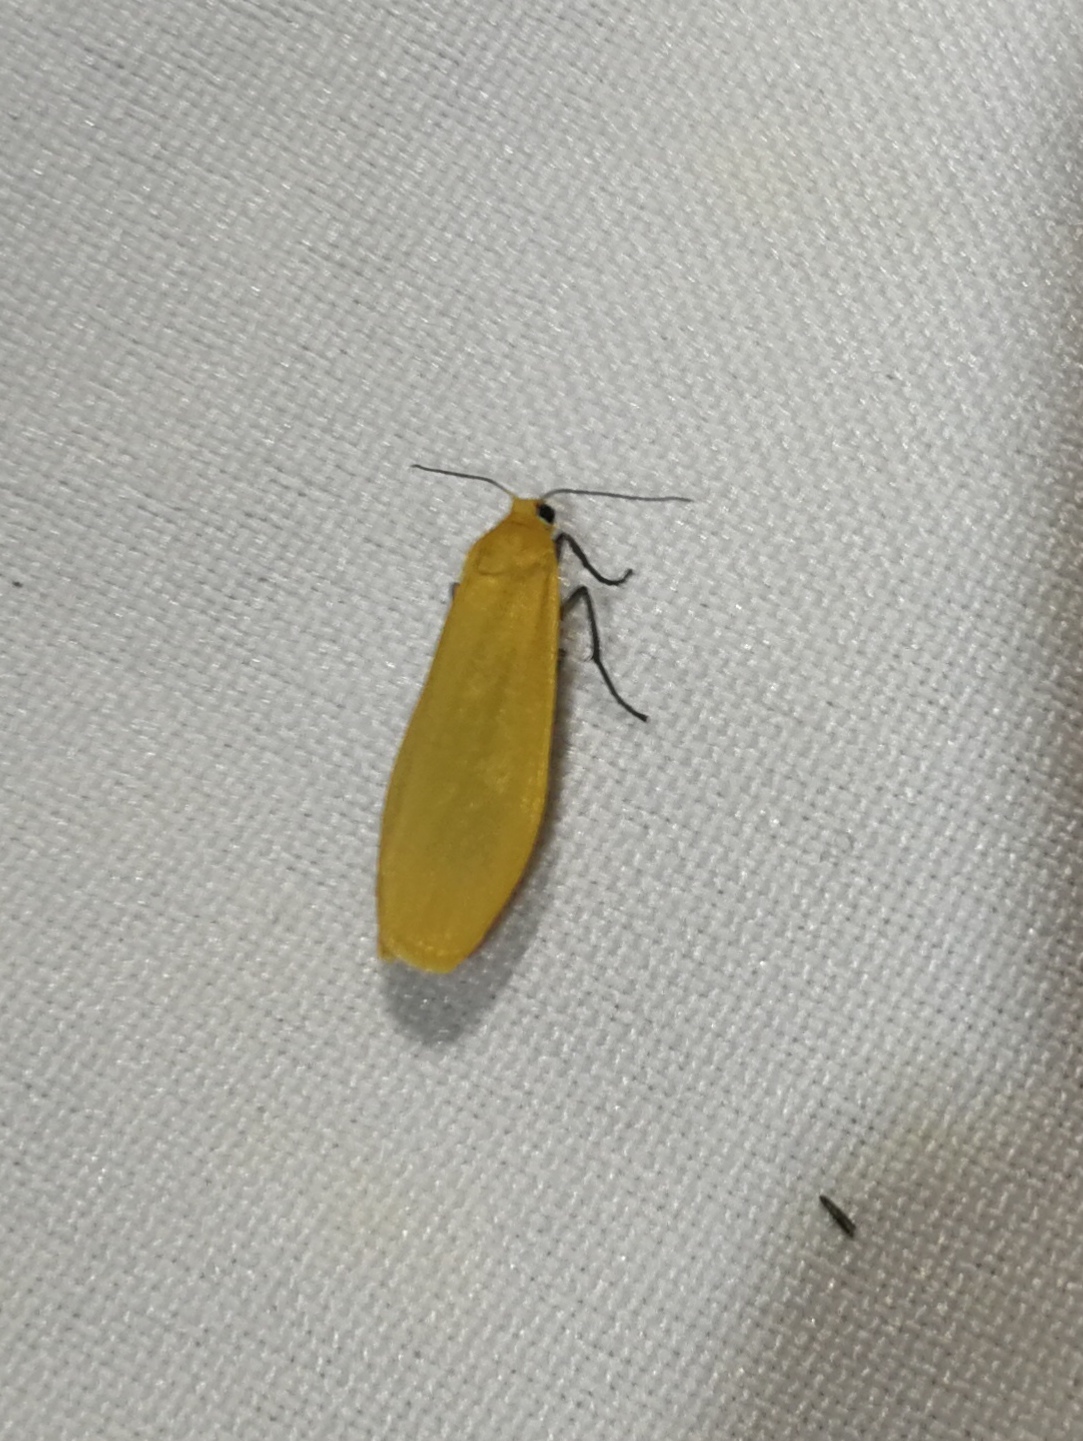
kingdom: Animalia
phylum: Arthropoda
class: Insecta
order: Lepidoptera
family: Erebidae
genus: Wittia
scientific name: Wittia sororcula
